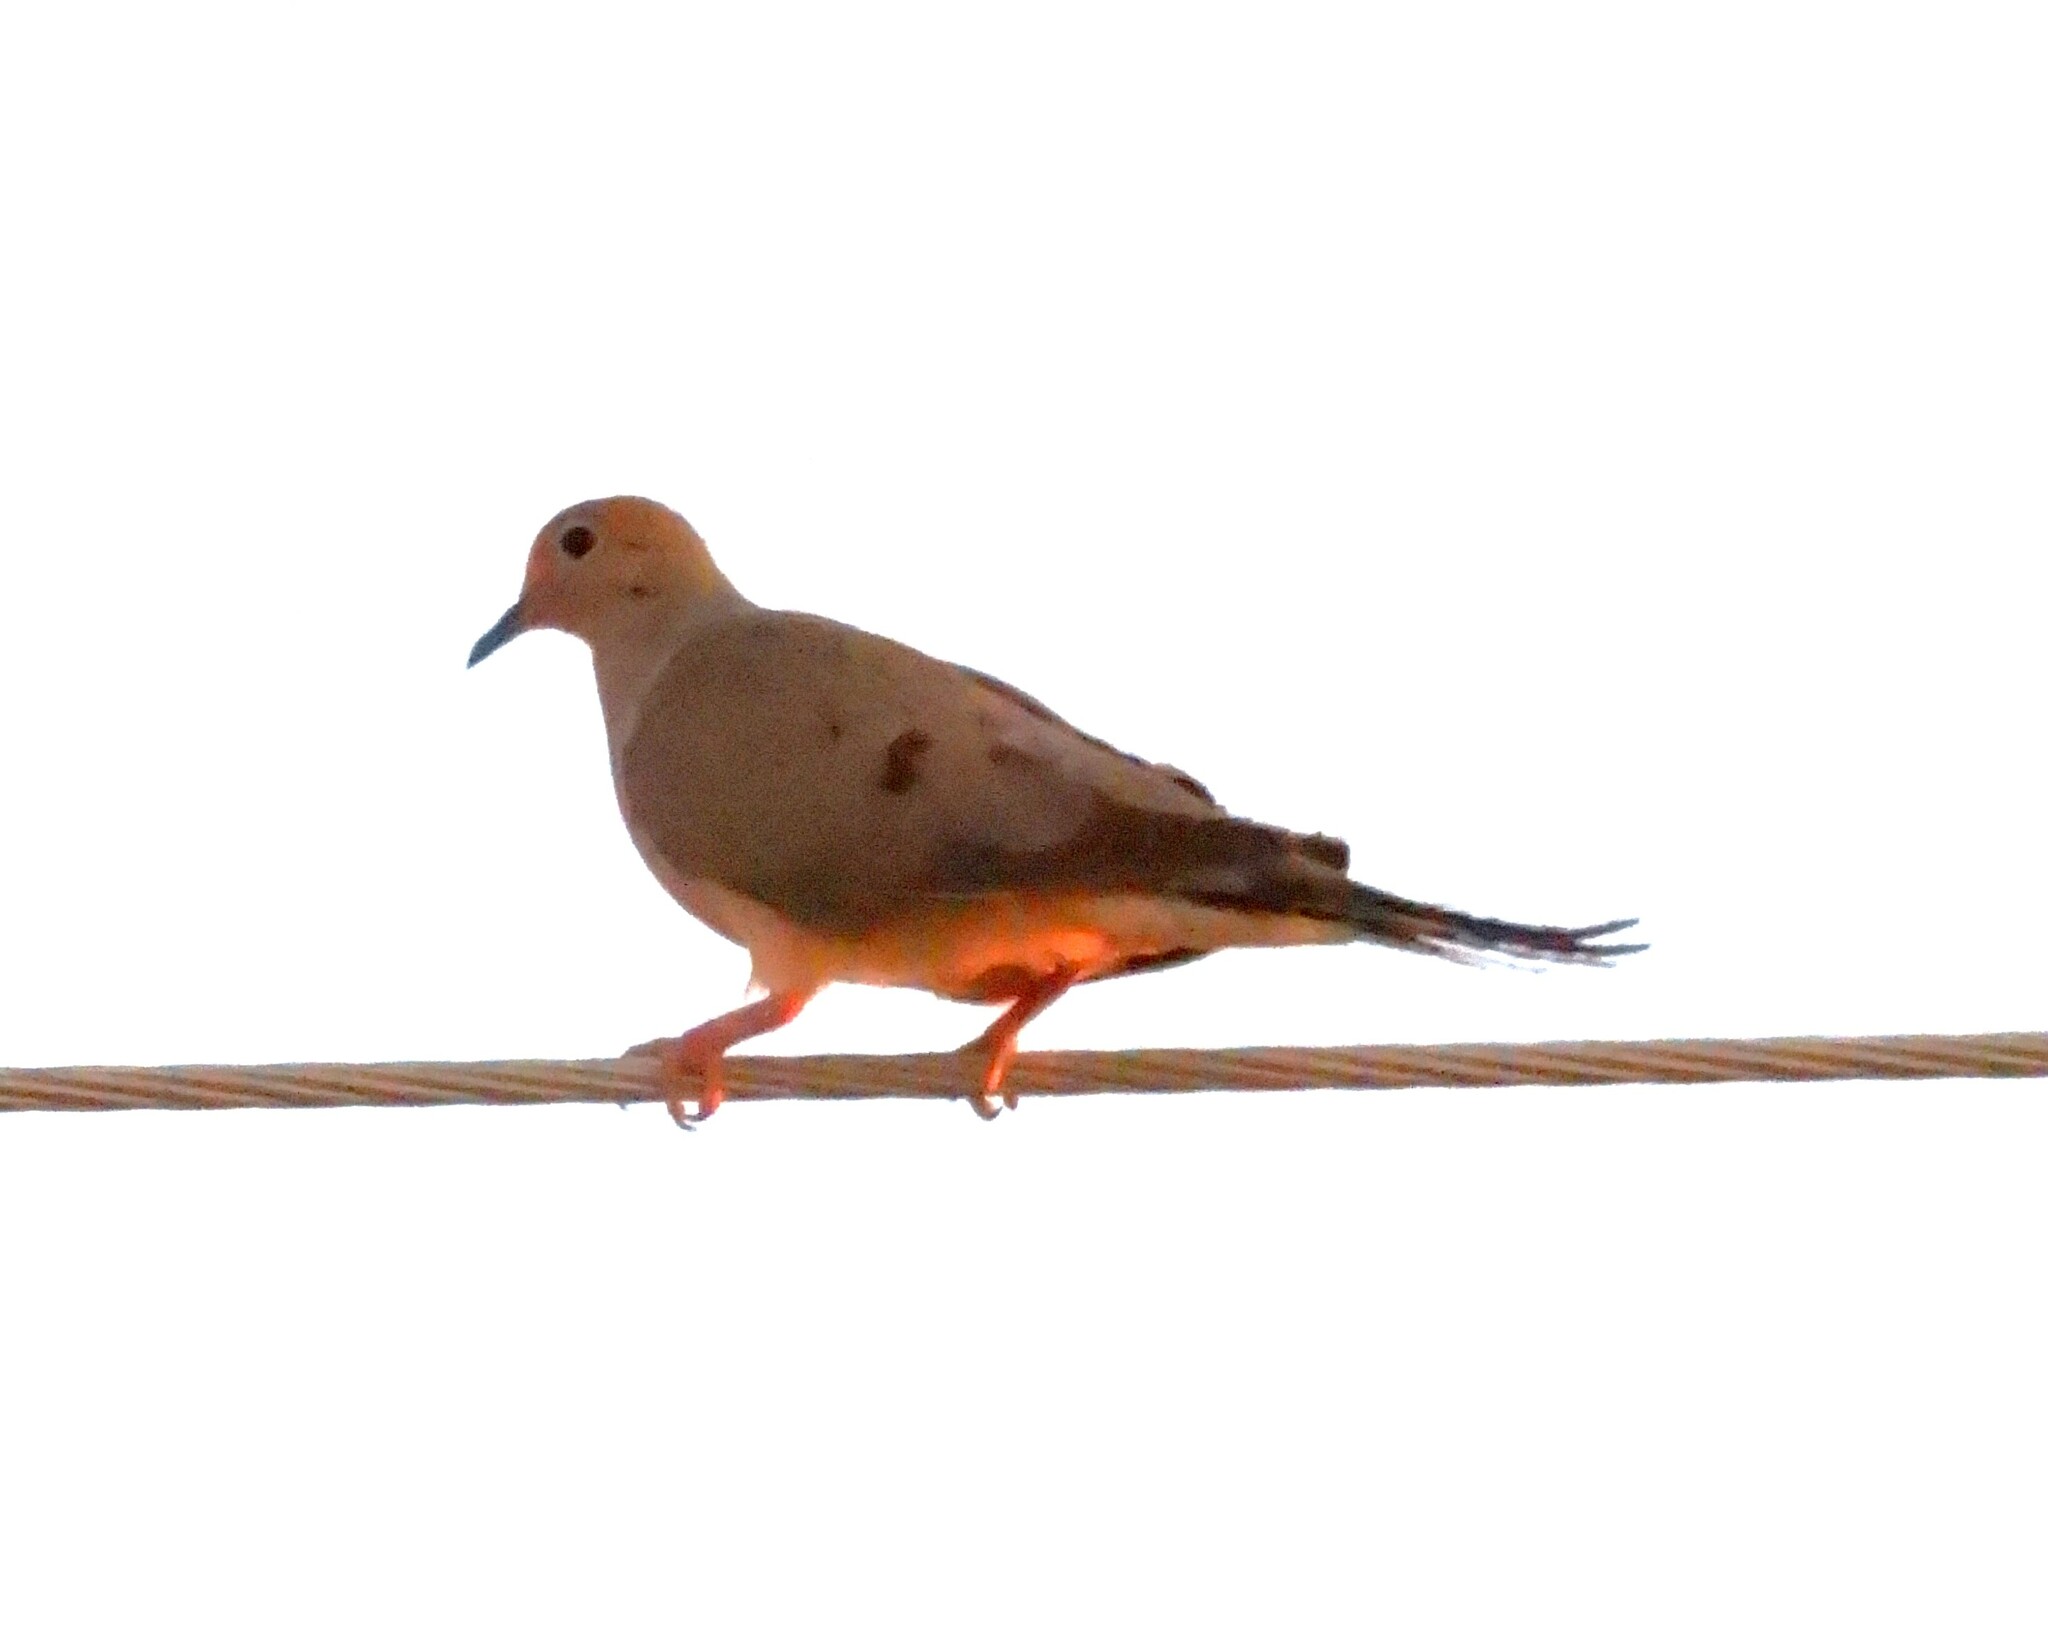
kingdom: Animalia
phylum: Chordata
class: Aves
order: Columbiformes
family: Columbidae
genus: Zenaida
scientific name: Zenaida macroura
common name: Mourning dove
